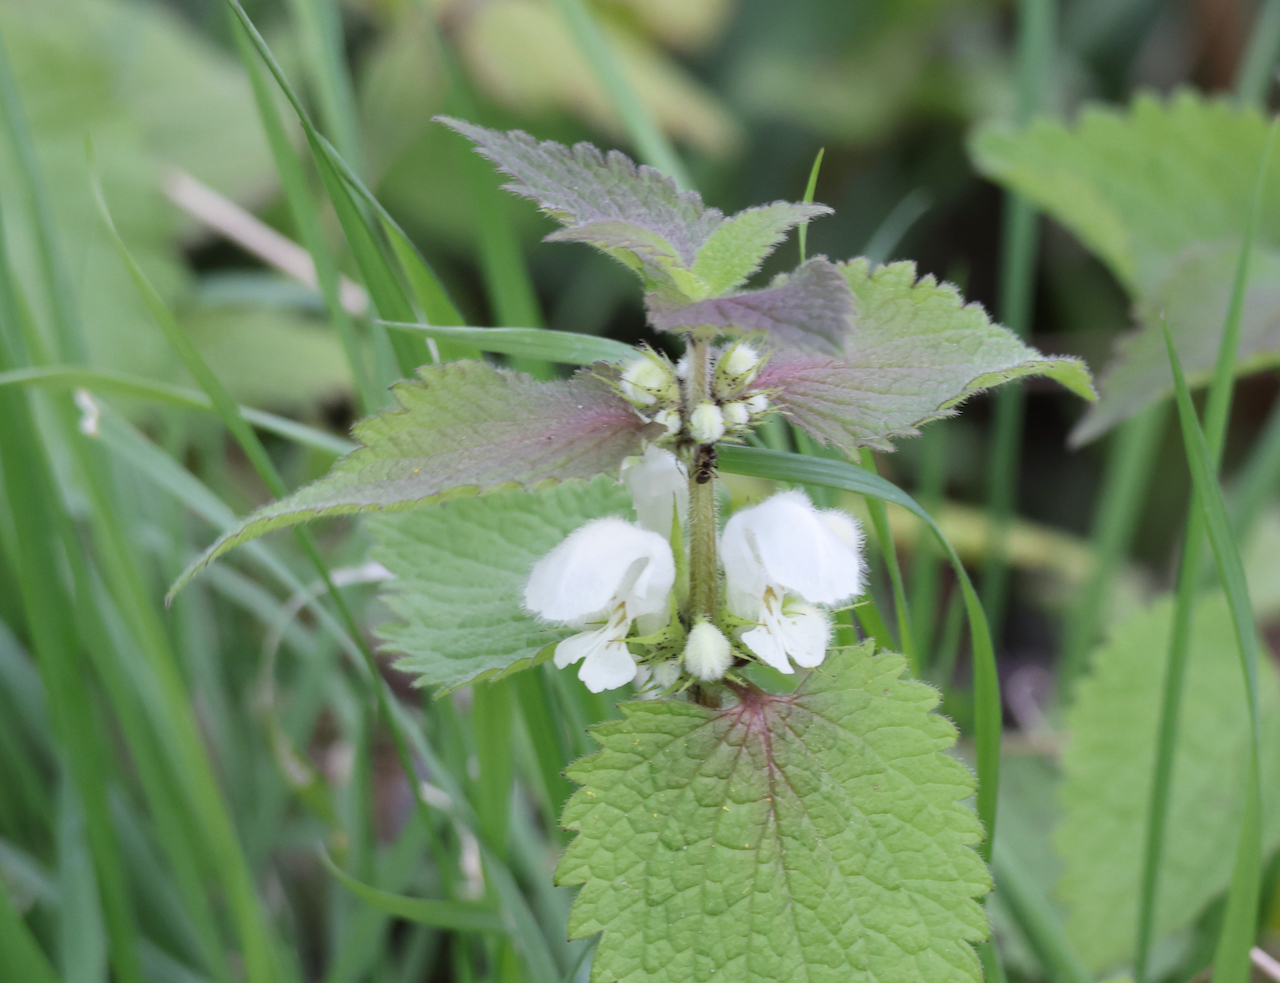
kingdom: Plantae
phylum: Tracheophyta
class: Magnoliopsida
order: Lamiales
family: Lamiaceae
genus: Lamium
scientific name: Lamium album
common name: White dead-nettle
